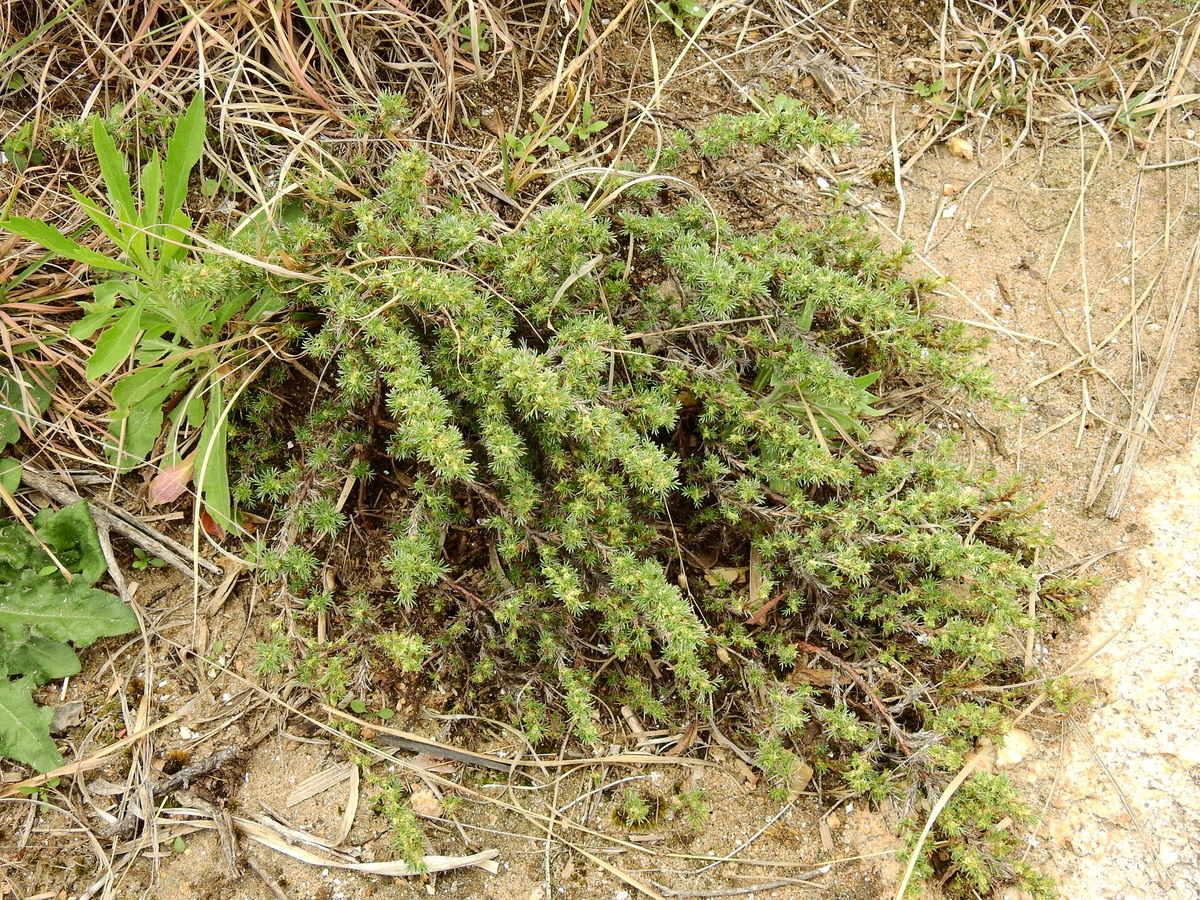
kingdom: Plantae
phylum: Tracheophyta
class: Magnoliopsida
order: Rosales
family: Rosaceae
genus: Margyricarpus
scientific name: Margyricarpus pinnatus
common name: Pearlfruit
